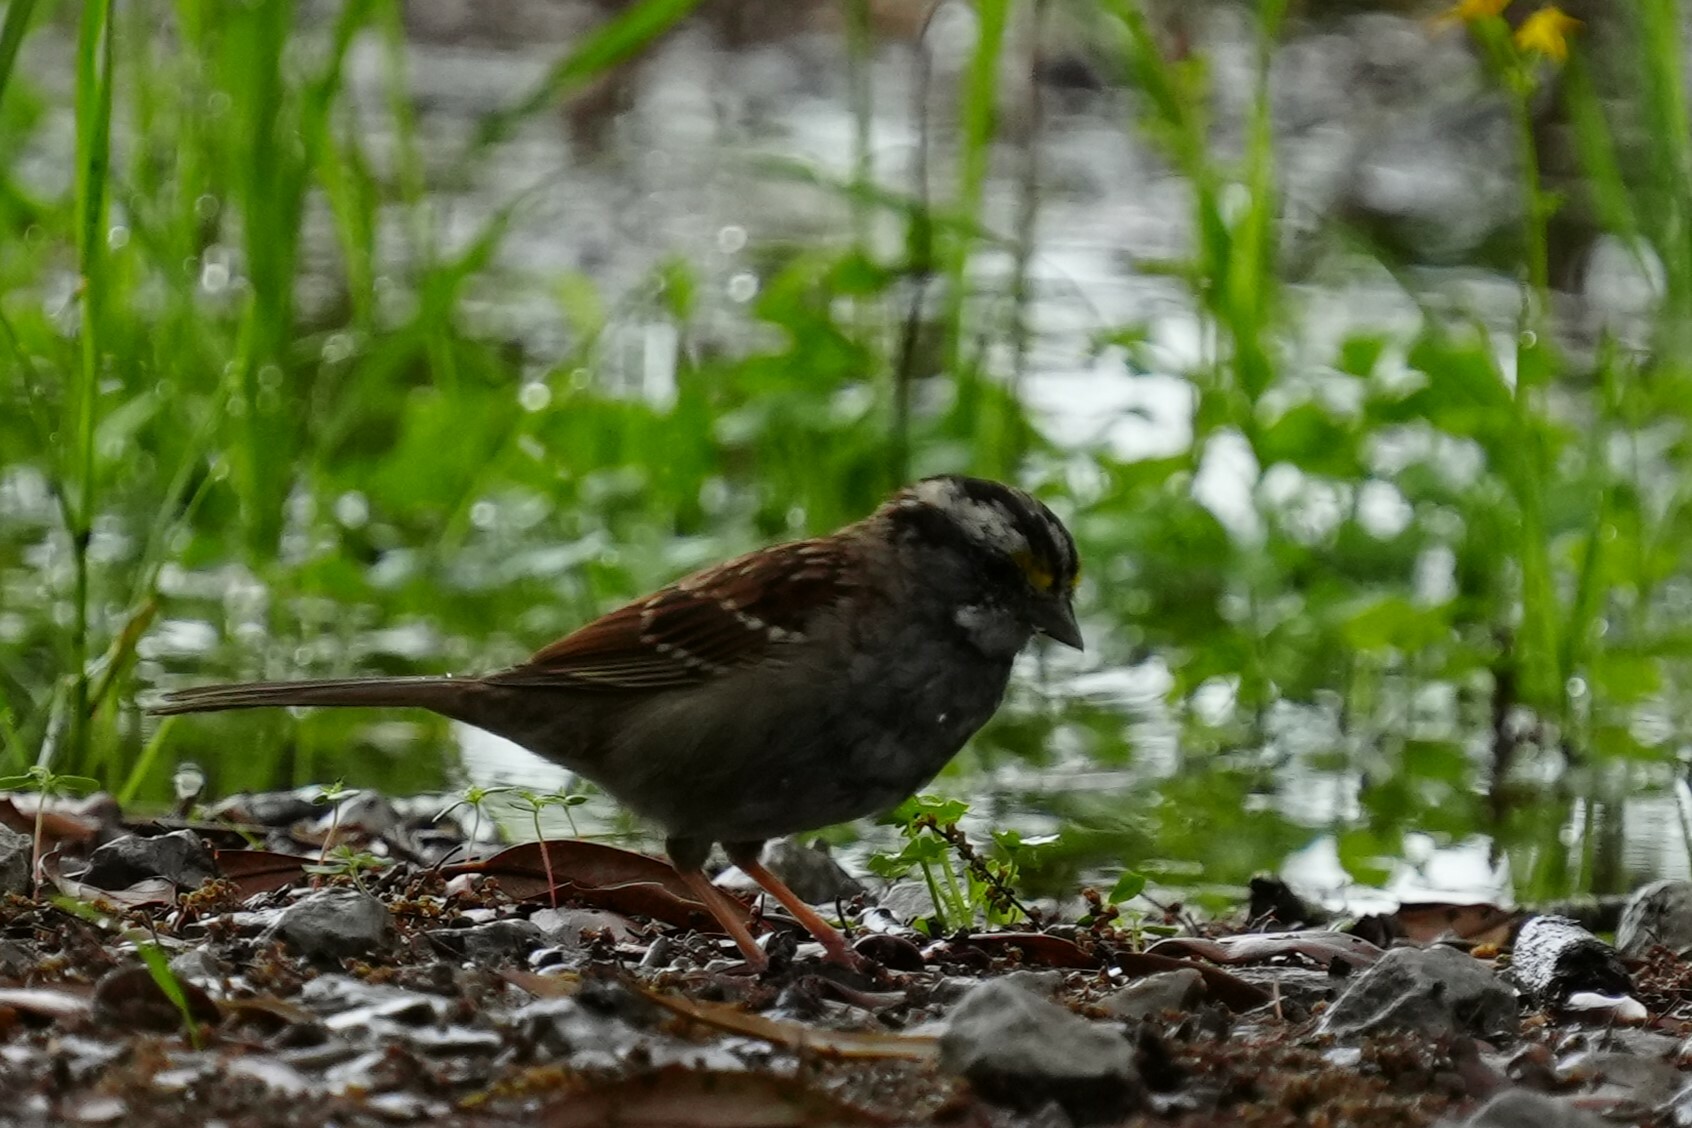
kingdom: Animalia
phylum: Chordata
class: Aves
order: Passeriformes
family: Passerellidae
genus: Zonotrichia
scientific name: Zonotrichia albicollis
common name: White-throated sparrow
